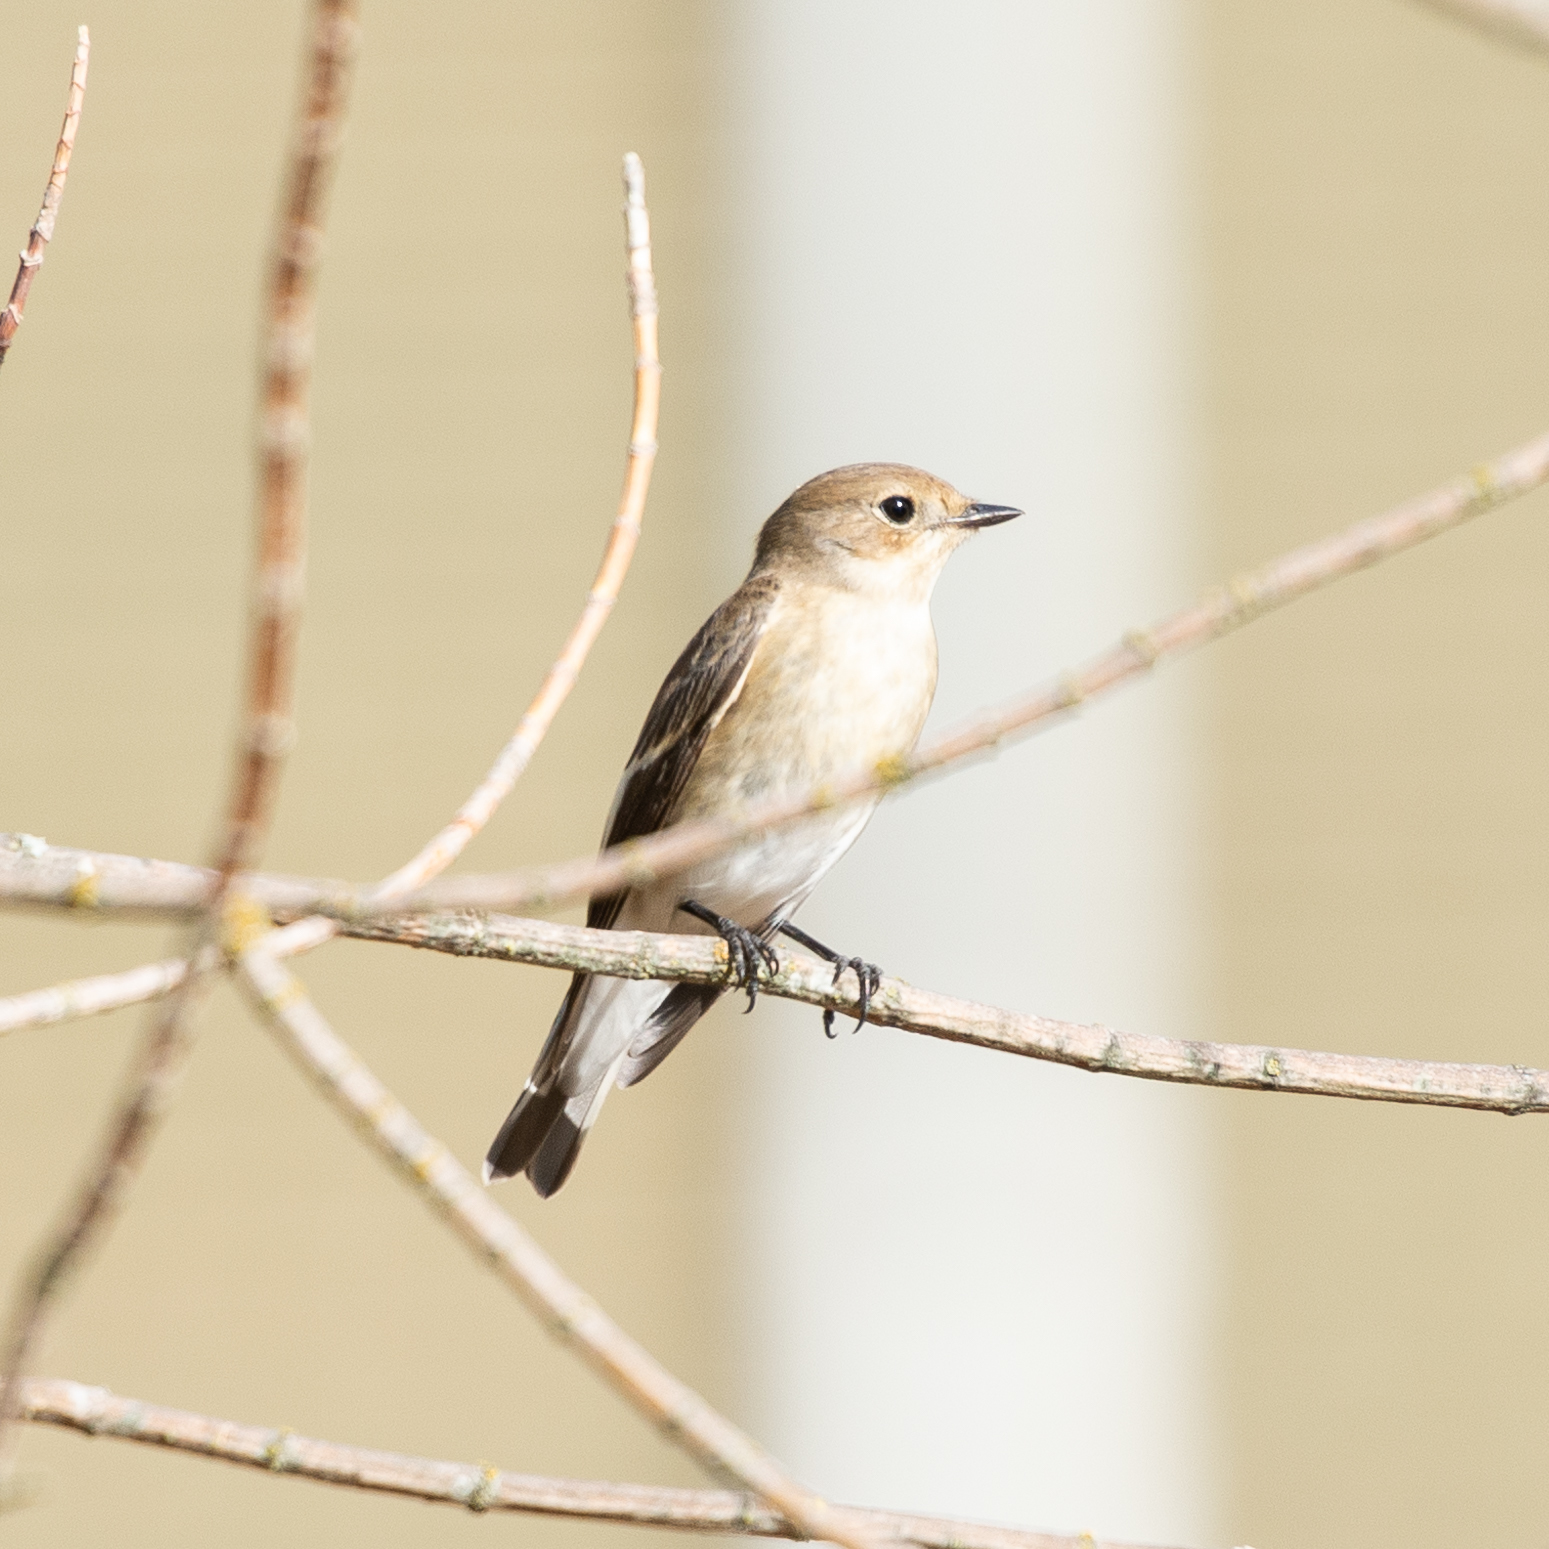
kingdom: Animalia
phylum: Chordata
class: Aves
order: Passeriformes
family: Muscicapidae
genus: Ficedula
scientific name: Ficedula hypoleuca
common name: European pied flycatcher
